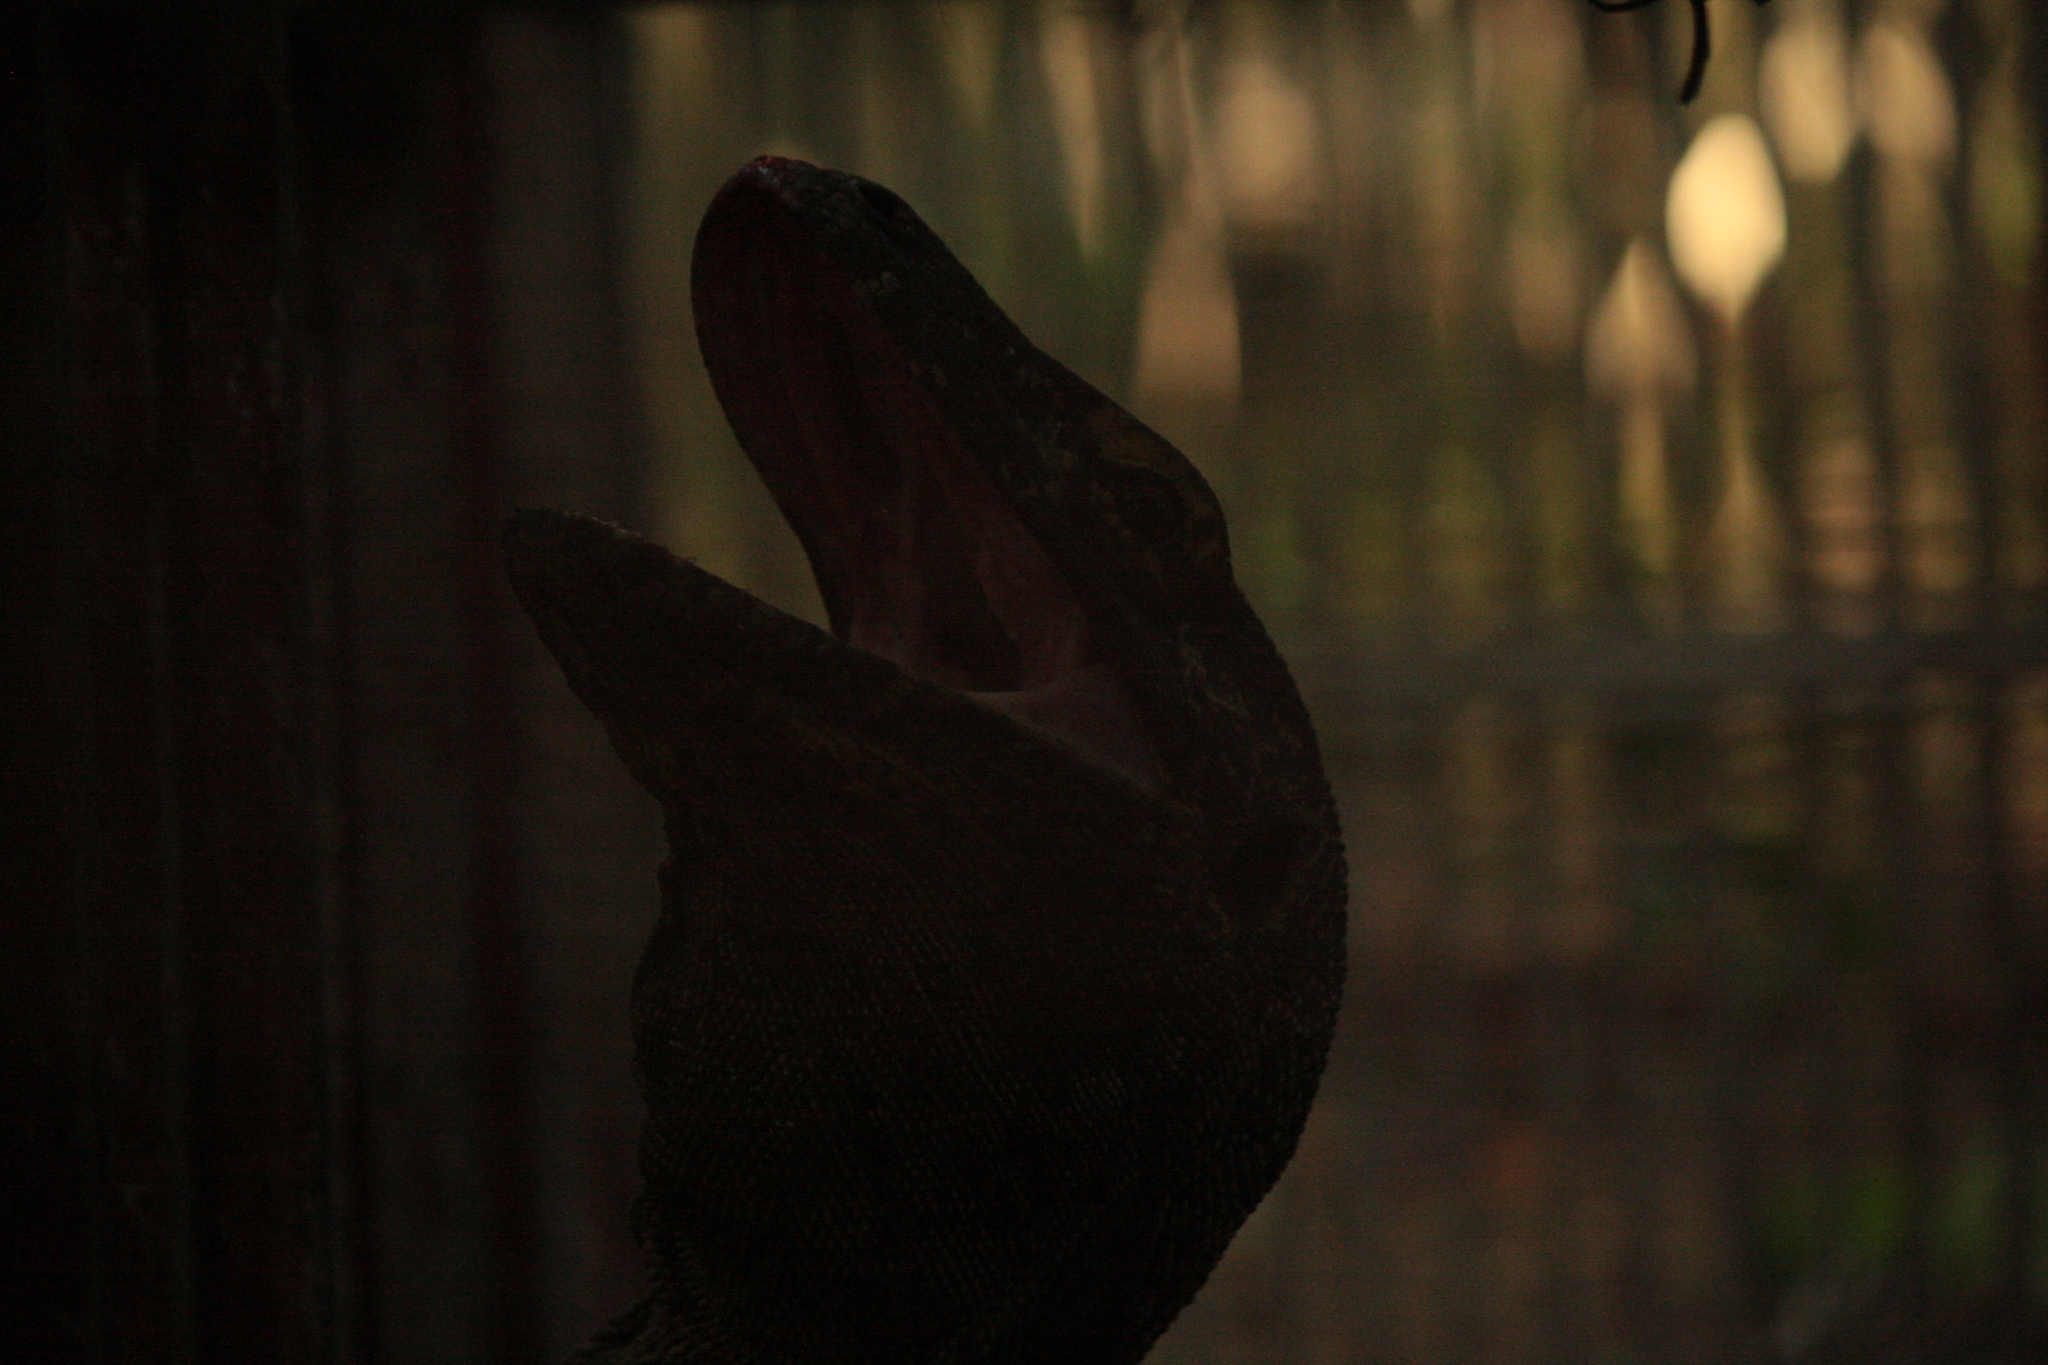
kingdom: Animalia
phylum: Chordata
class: Squamata
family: Varanidae
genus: Varanus
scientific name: Varanus komodoensis
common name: Komodo dragon
